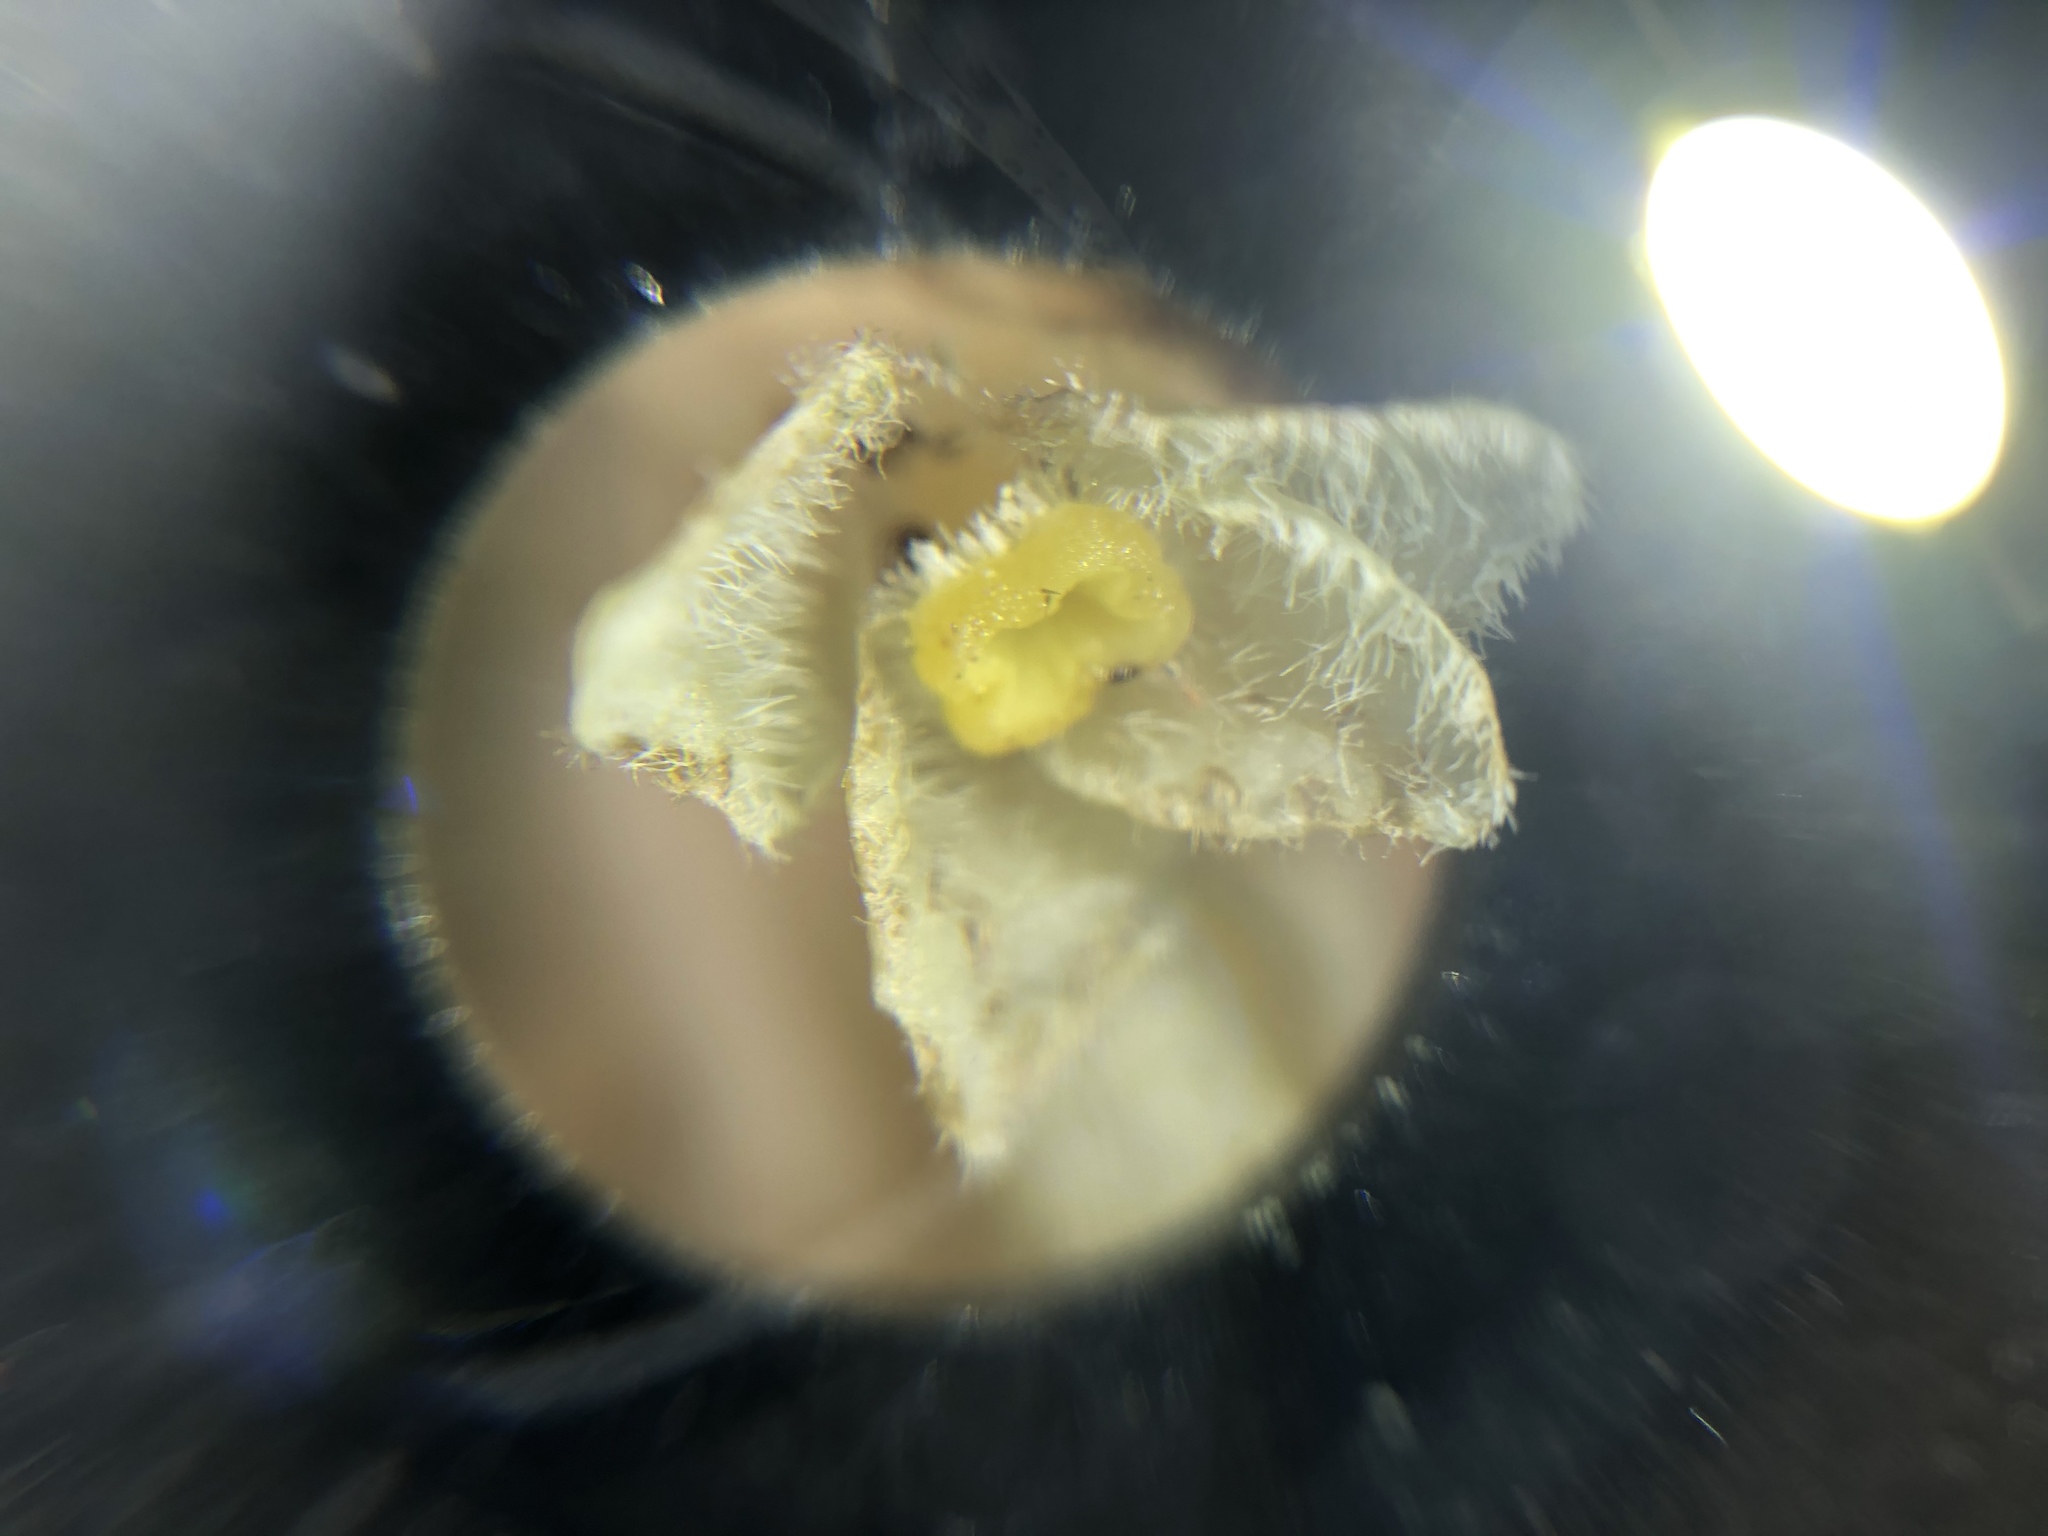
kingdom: Plantae
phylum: Tracheophyta
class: Magnoliopsida
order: Ericales
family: Ericaceae
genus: Hypopitys
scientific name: Hypopitys monotropa
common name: Yellow bird's-nest
